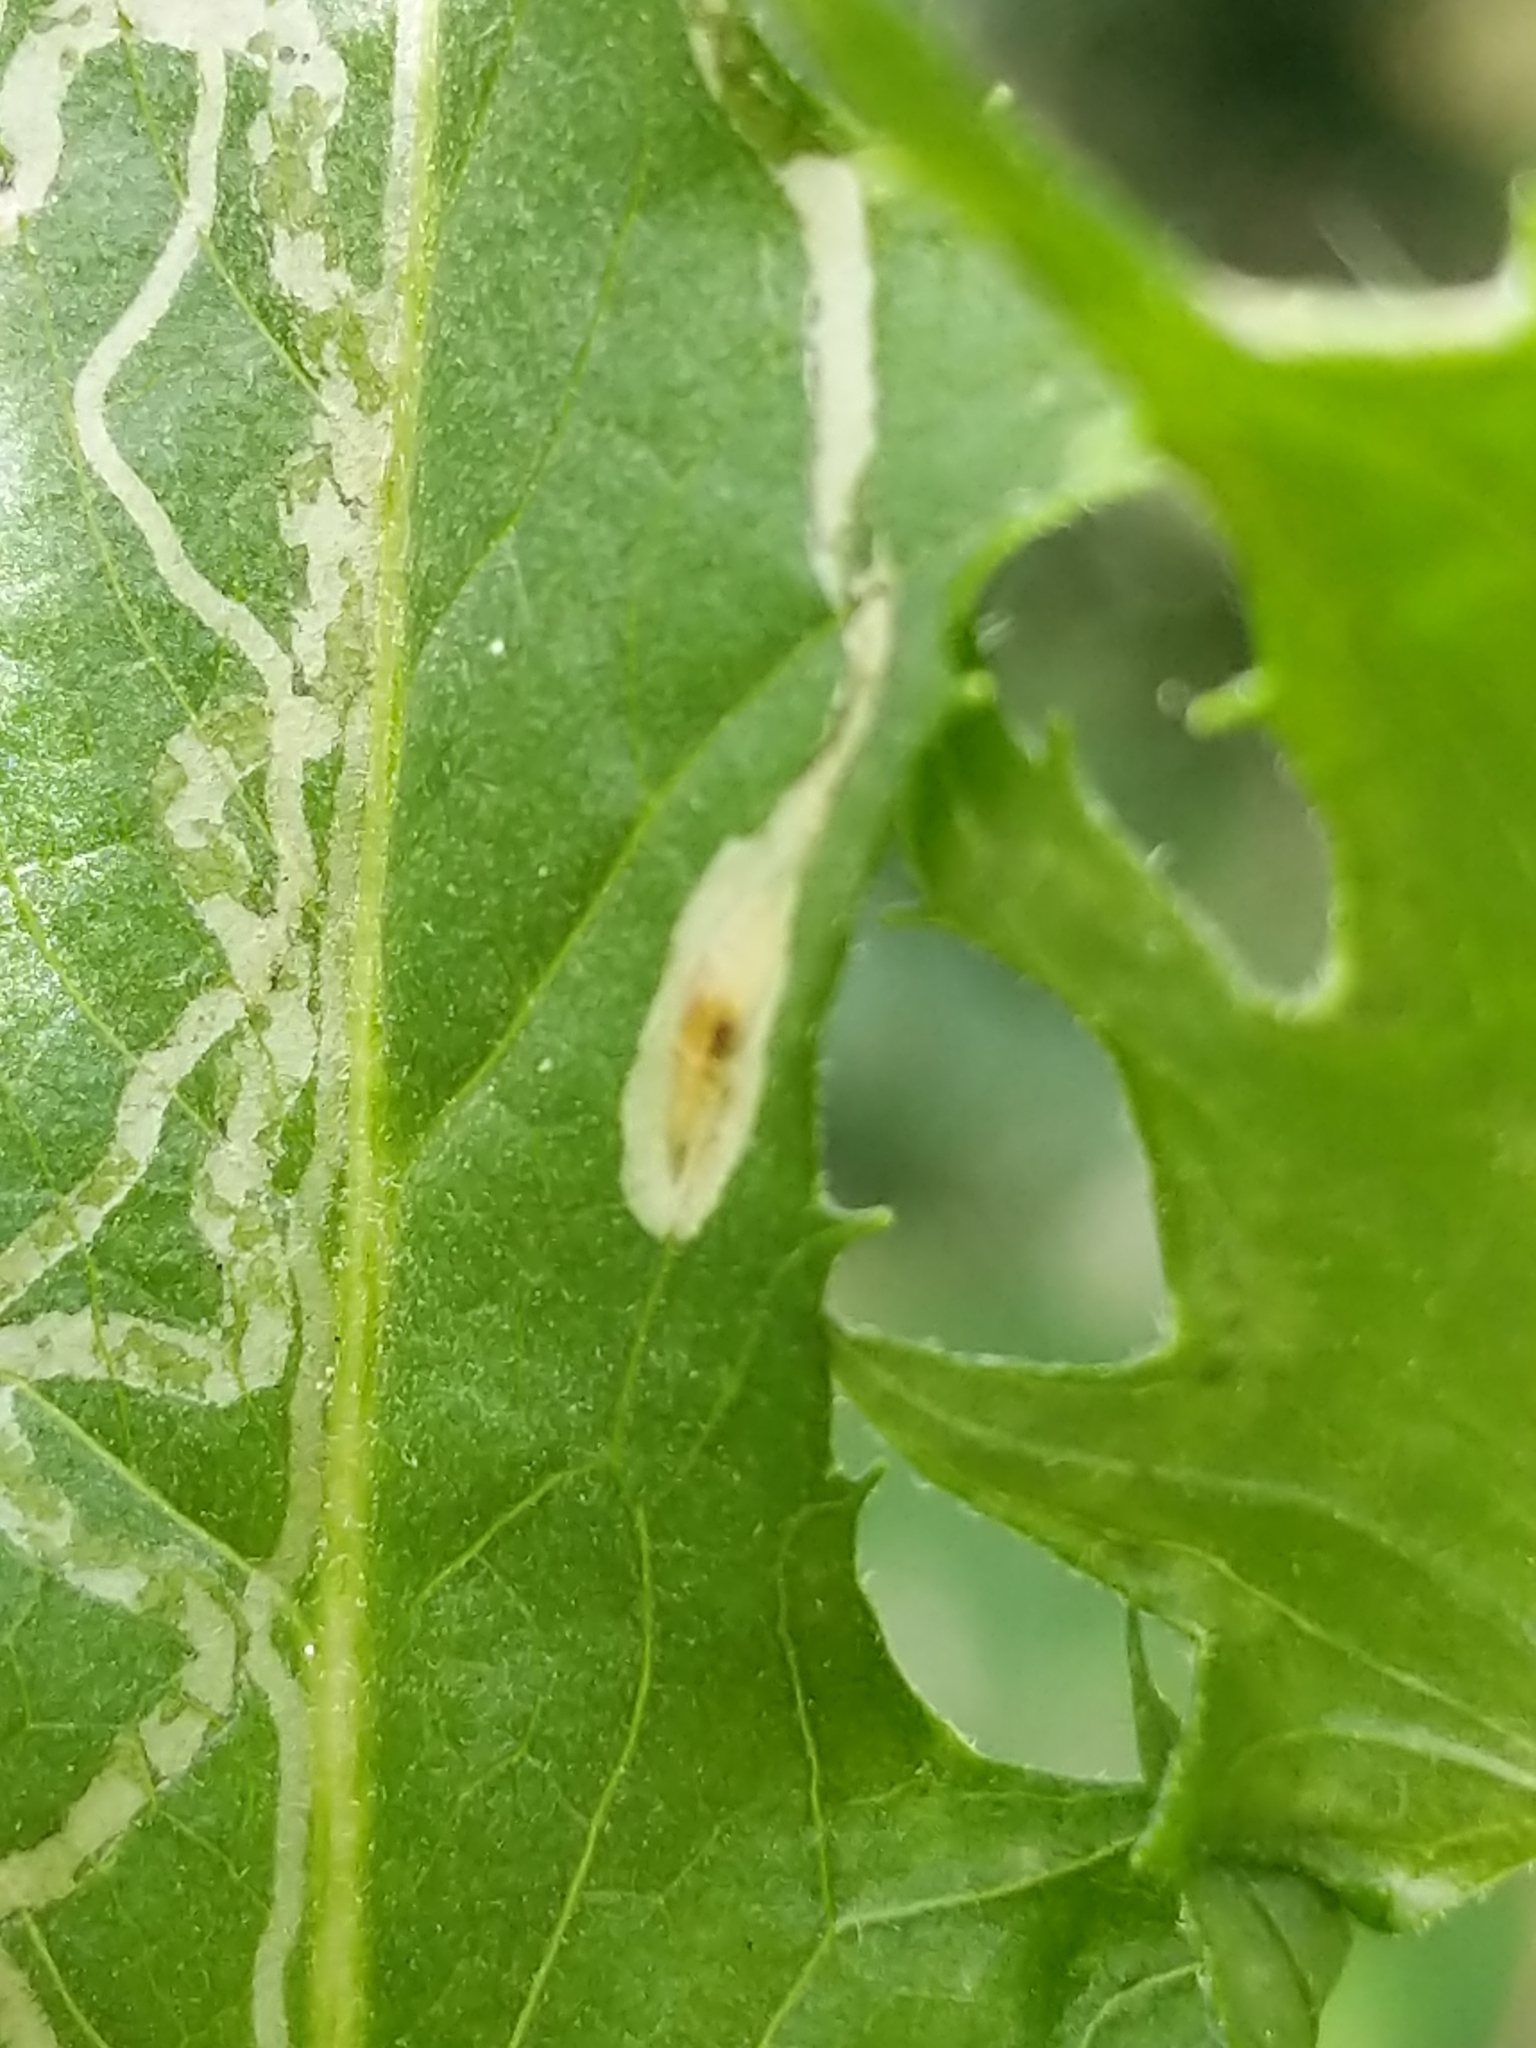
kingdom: Animalia
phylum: Arthropoda
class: Insecta
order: Lepidoptera
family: Gracillariidae
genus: Phyllocnistis
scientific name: Phyllocnistis insignis
